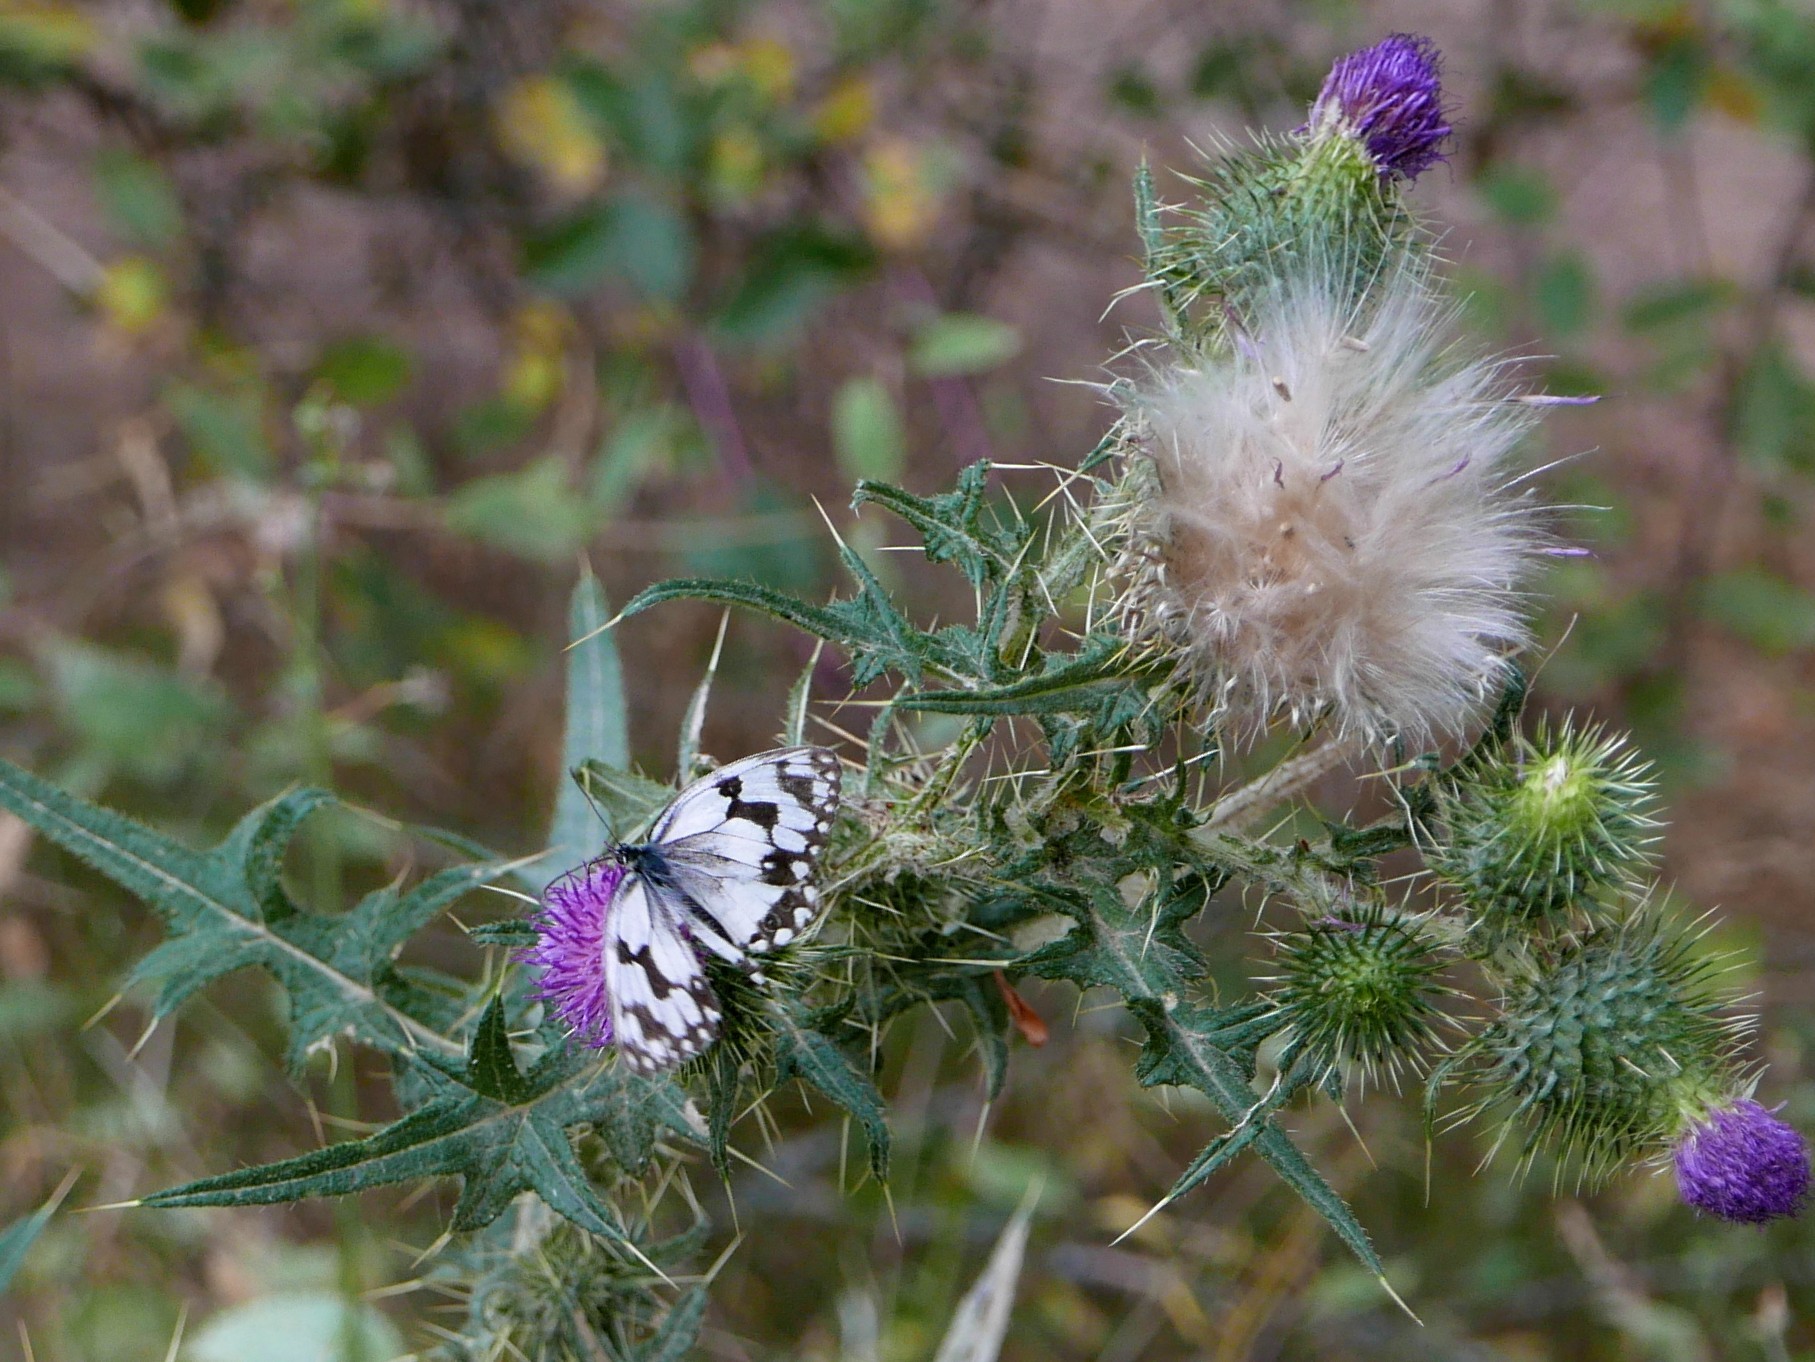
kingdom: Animalia
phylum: Arthropoda
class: Insecta
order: Lepidoptera
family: Nymphalidae
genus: Melanargia
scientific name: Melanargia lachesis
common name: Iberian marbled white
